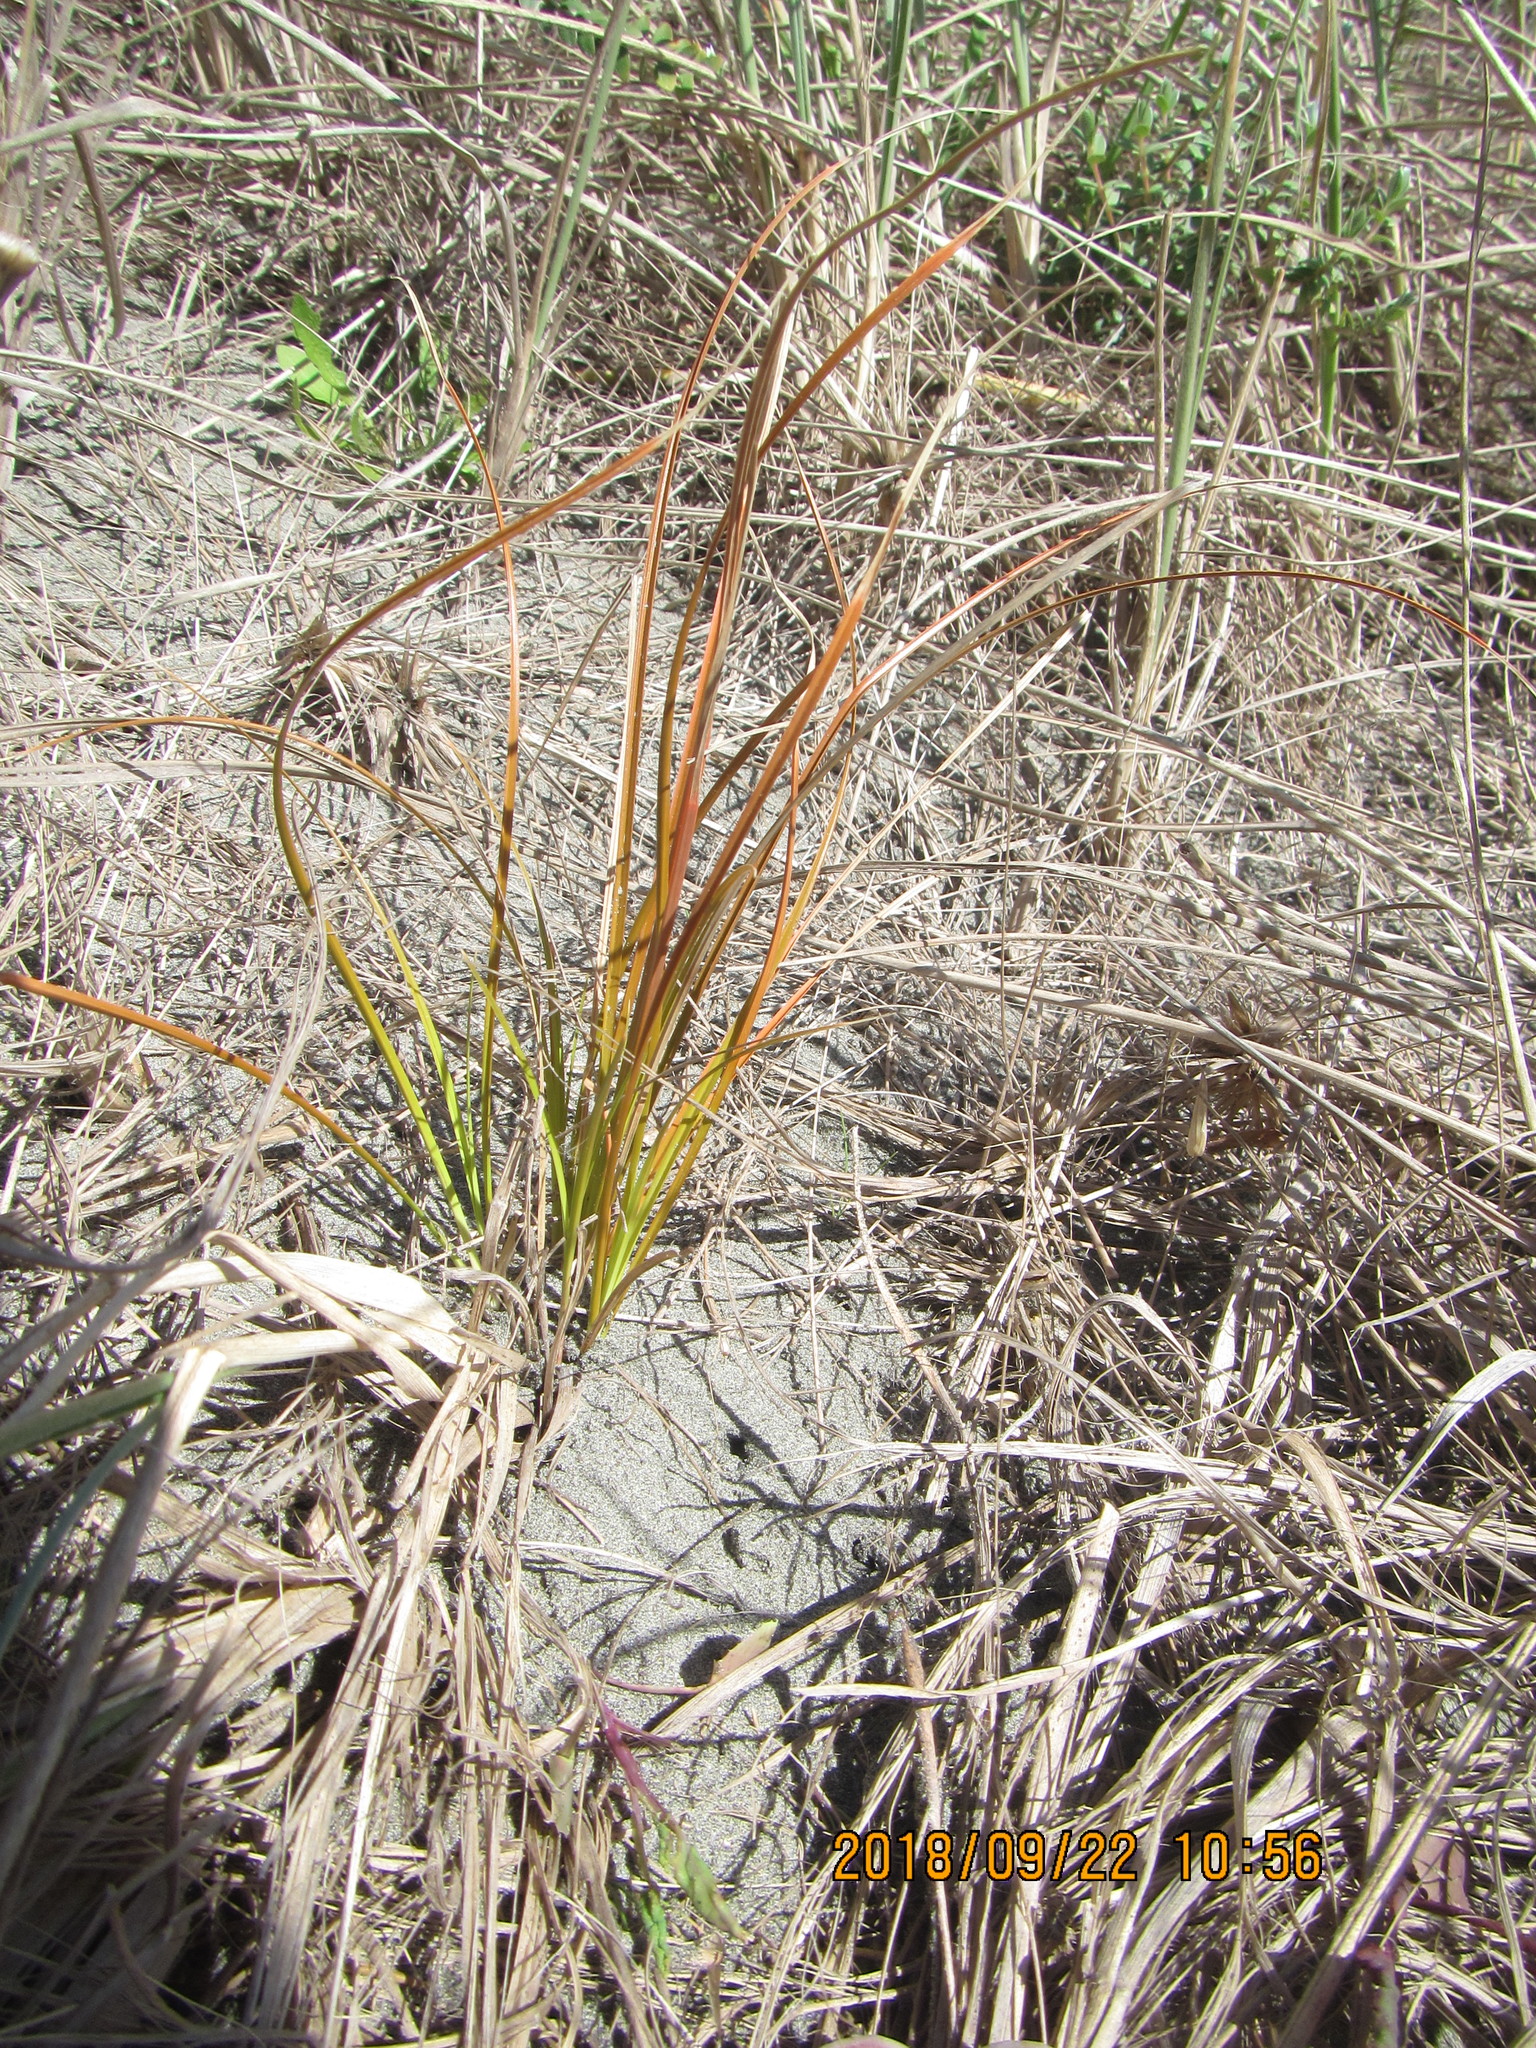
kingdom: Plantae
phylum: Tracheophyta
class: Liliopsida
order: Poales
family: Cyperaceae
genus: Carex
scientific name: Carex testacea
